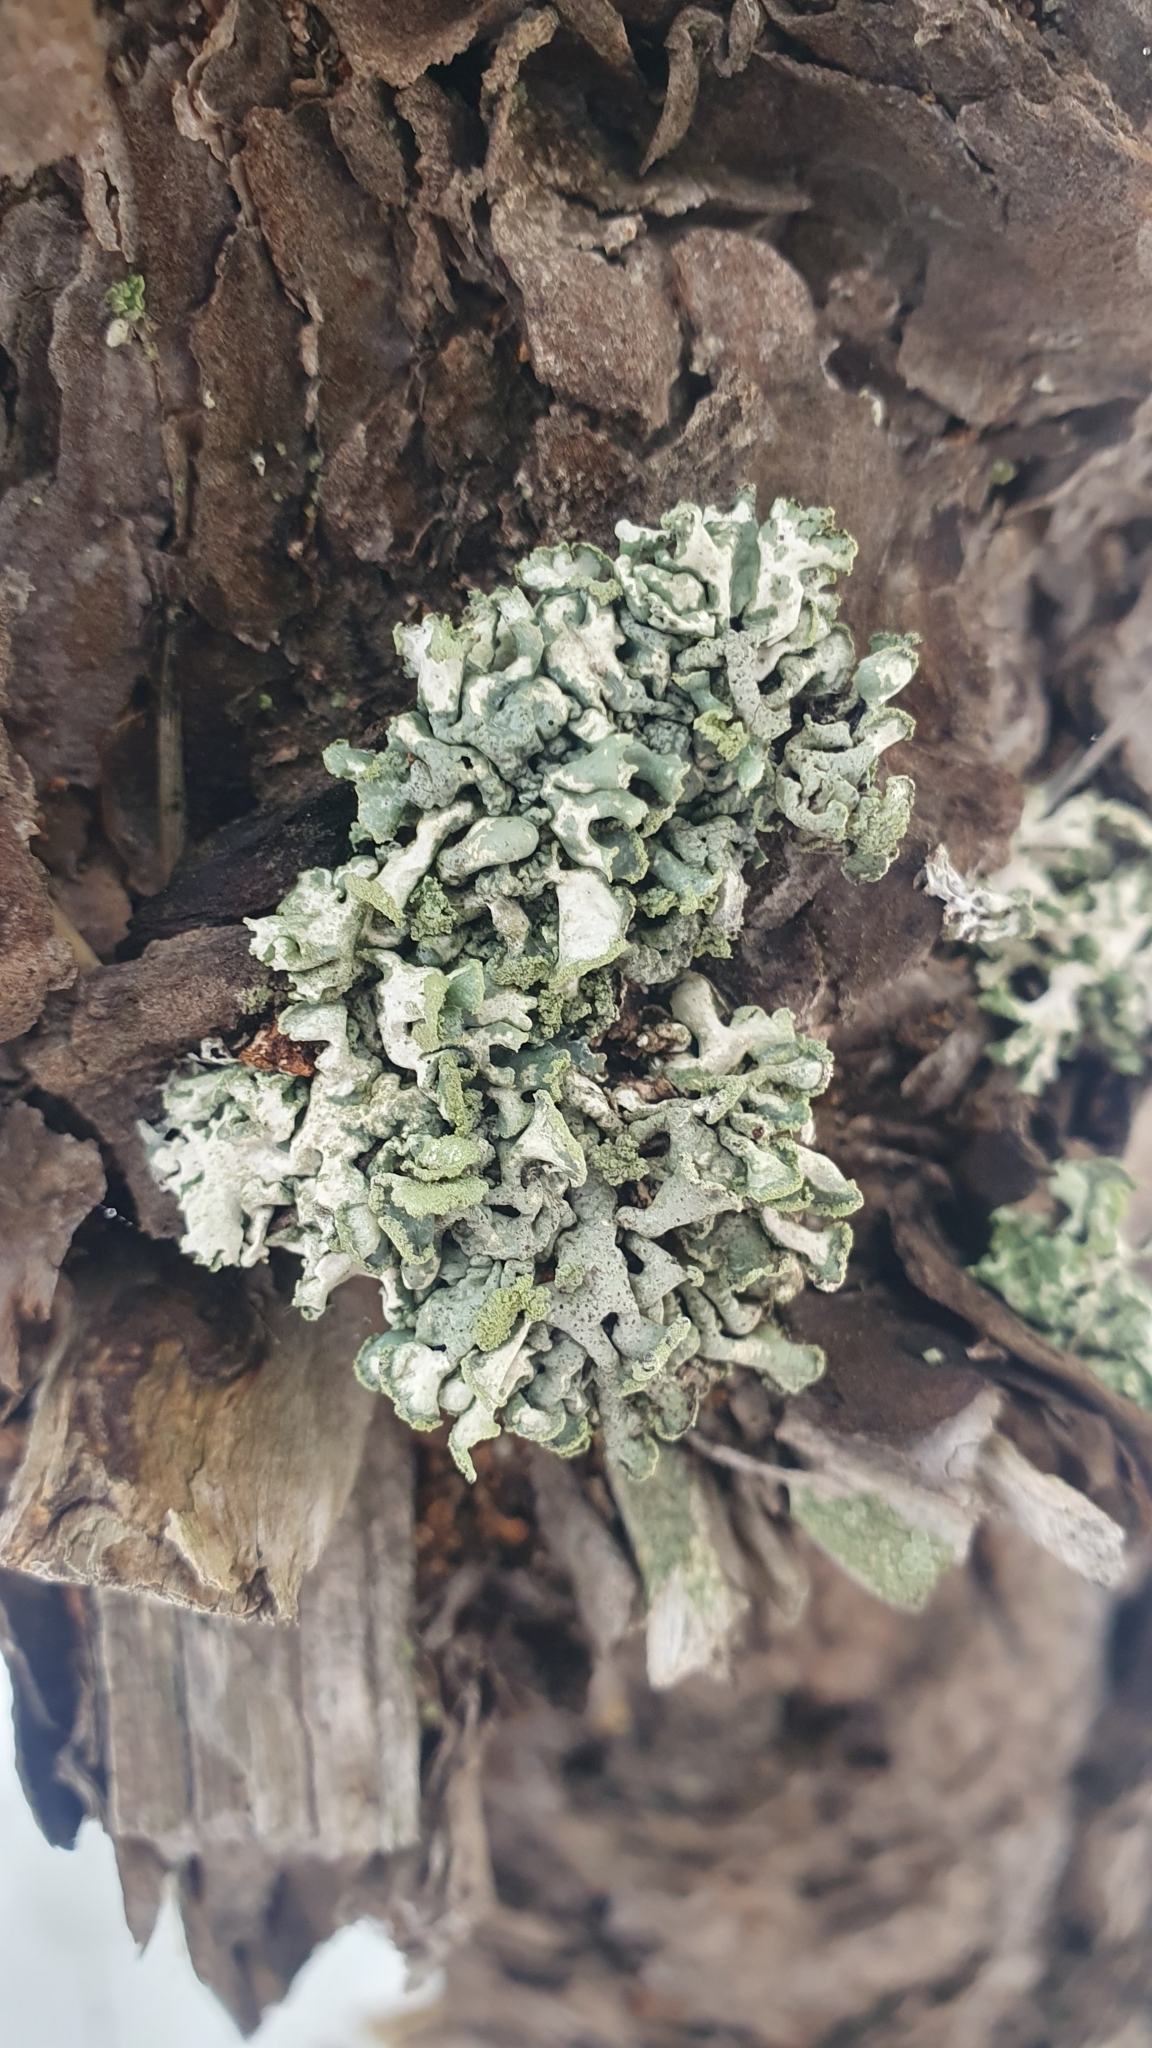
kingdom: Fungi
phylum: Ascomycota
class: Lecanoromycetes
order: Lecanorales
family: Parmeliaceae
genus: Hypogymnia
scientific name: Hypogymnia physodes
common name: Dark crottle
